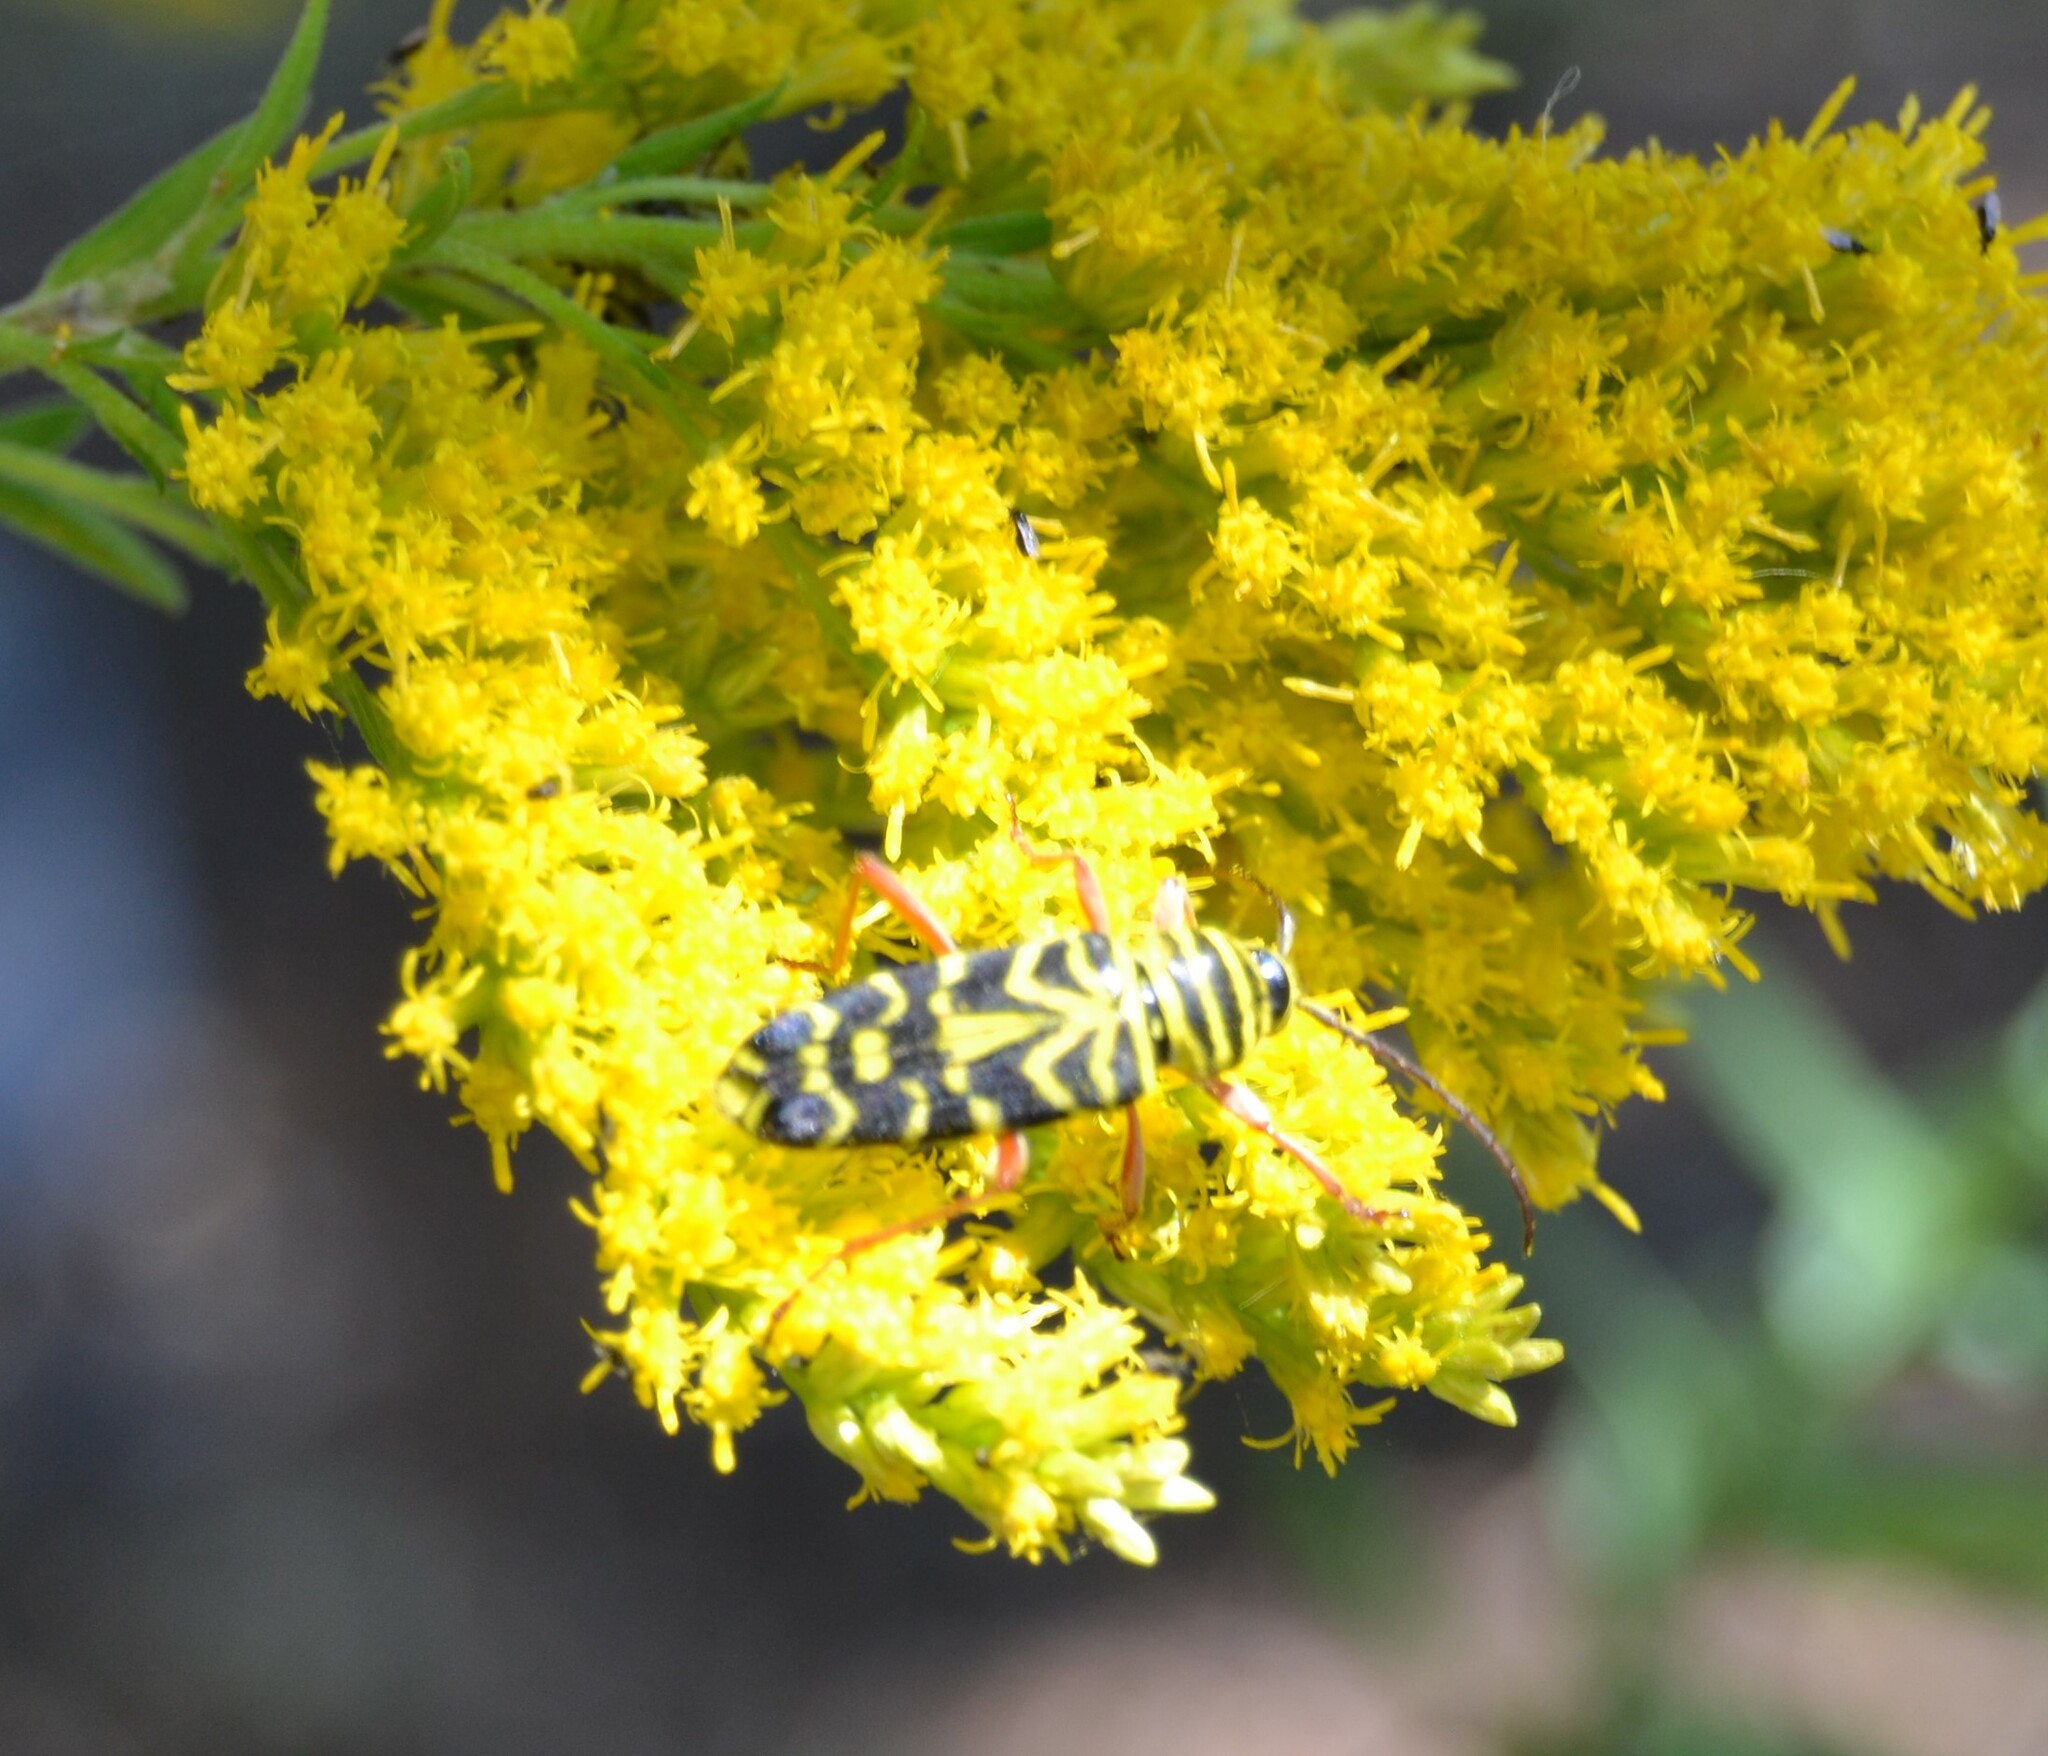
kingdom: Animalia
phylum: Arthropoda
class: Insecta
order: Coleoptera
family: Cerambycidae
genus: Megacyllene
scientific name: Megacyllene robiniae
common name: Locust borer
